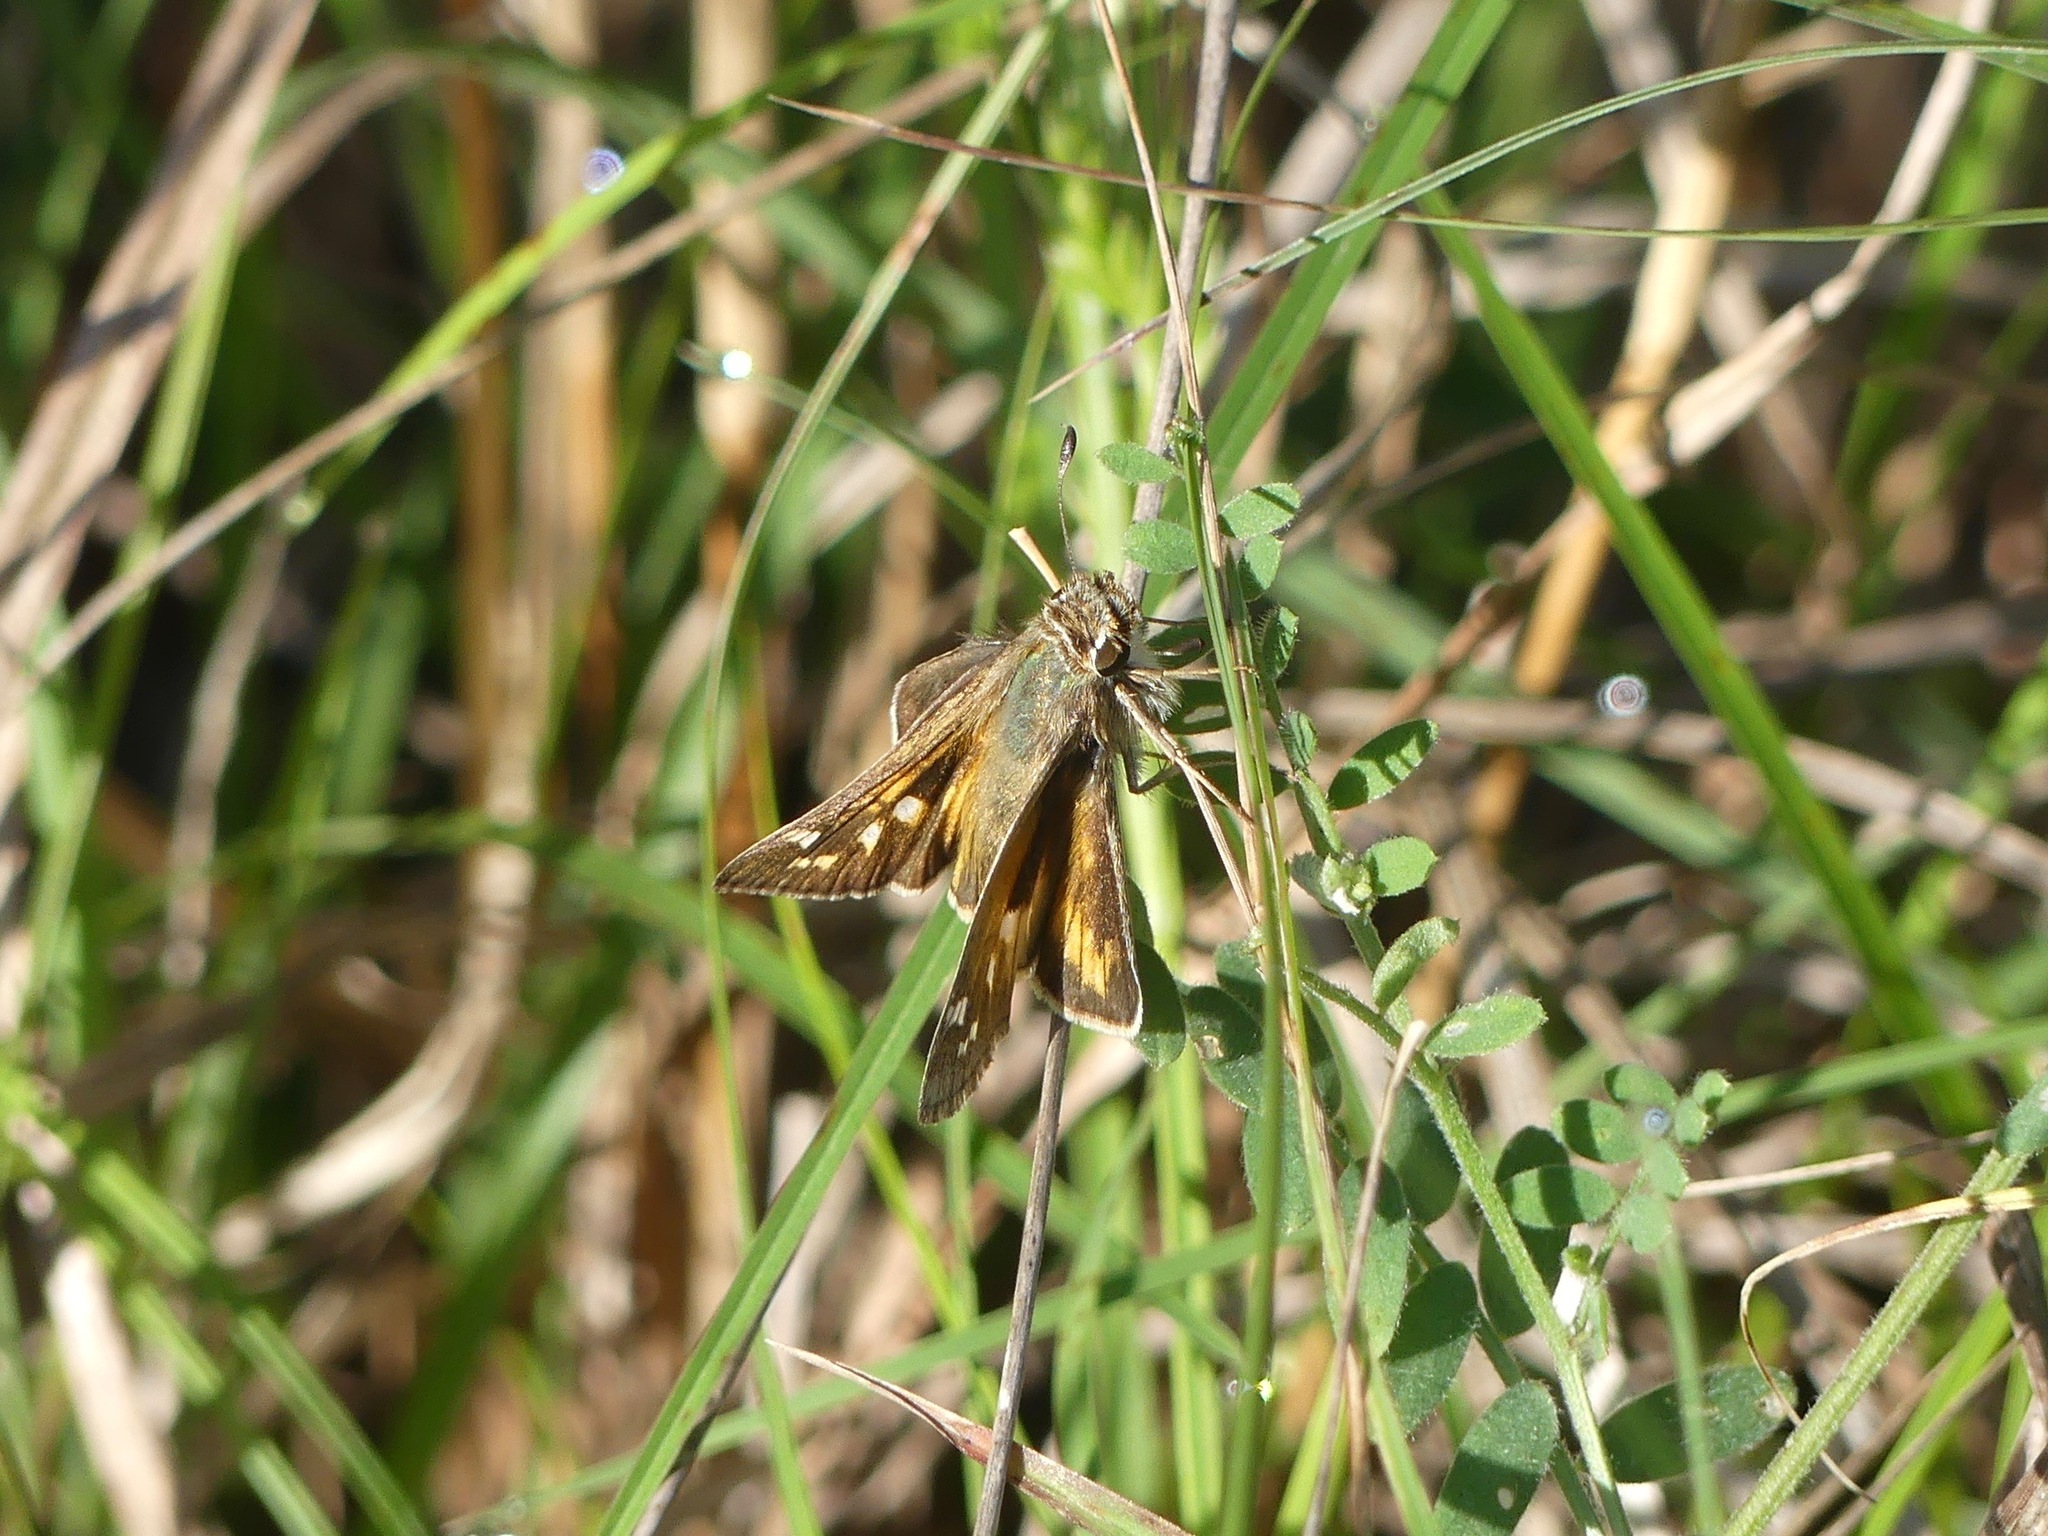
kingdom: Animalia
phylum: Arthropoda
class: Insecta
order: Lepidoptera
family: Hesperiidae
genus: Atalopedes
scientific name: Atalopedes
